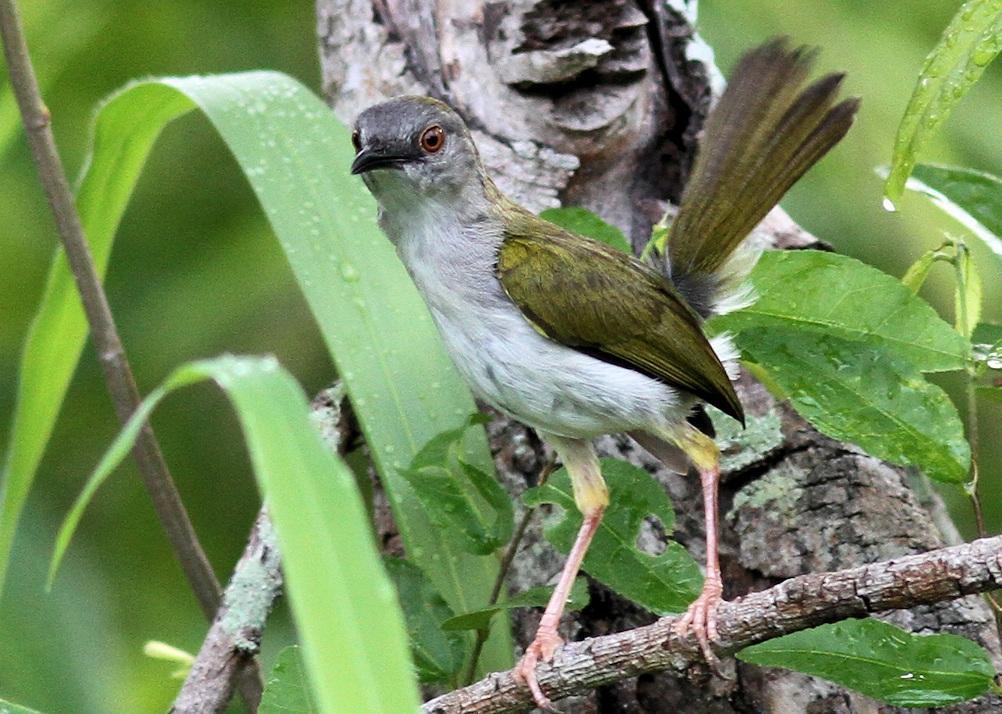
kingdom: Animalia
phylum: Chordata
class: Aves
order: Passeriformes
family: Cisticolidae
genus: Camaroptera
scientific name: Camaroptera brachyura
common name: Green-backed camaroptera
